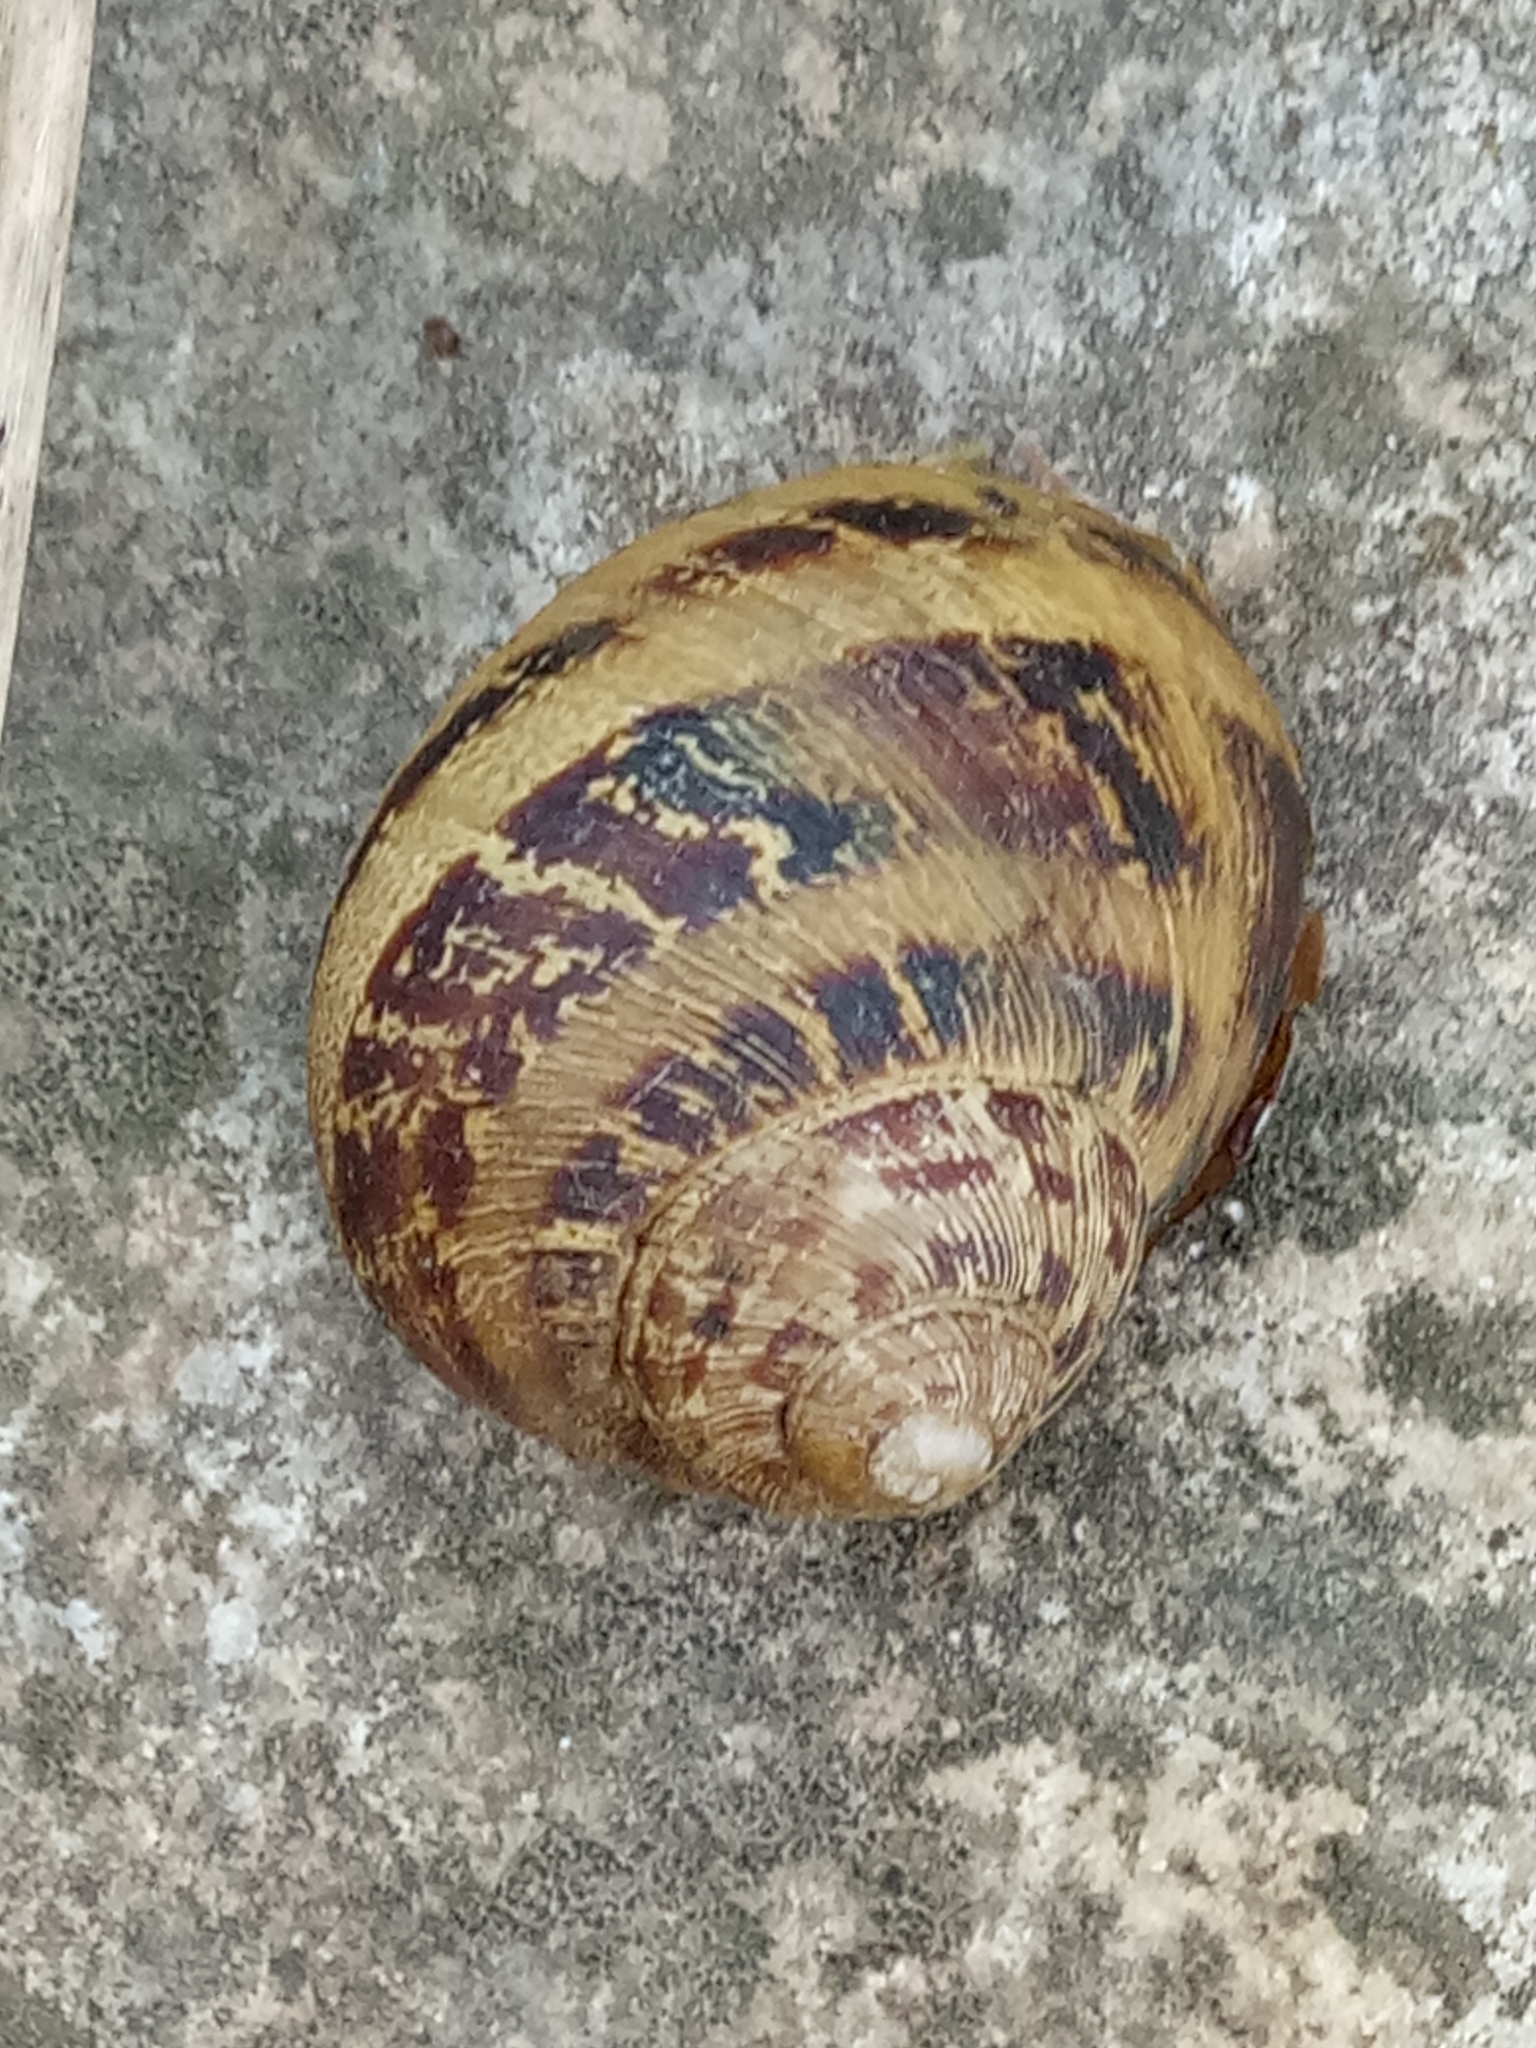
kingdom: Animalia
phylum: Mollusca
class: Gastropoda
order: Stylommatophora
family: Helicidae
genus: Cornu
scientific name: Cornu aspersum
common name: Brown garden snail
